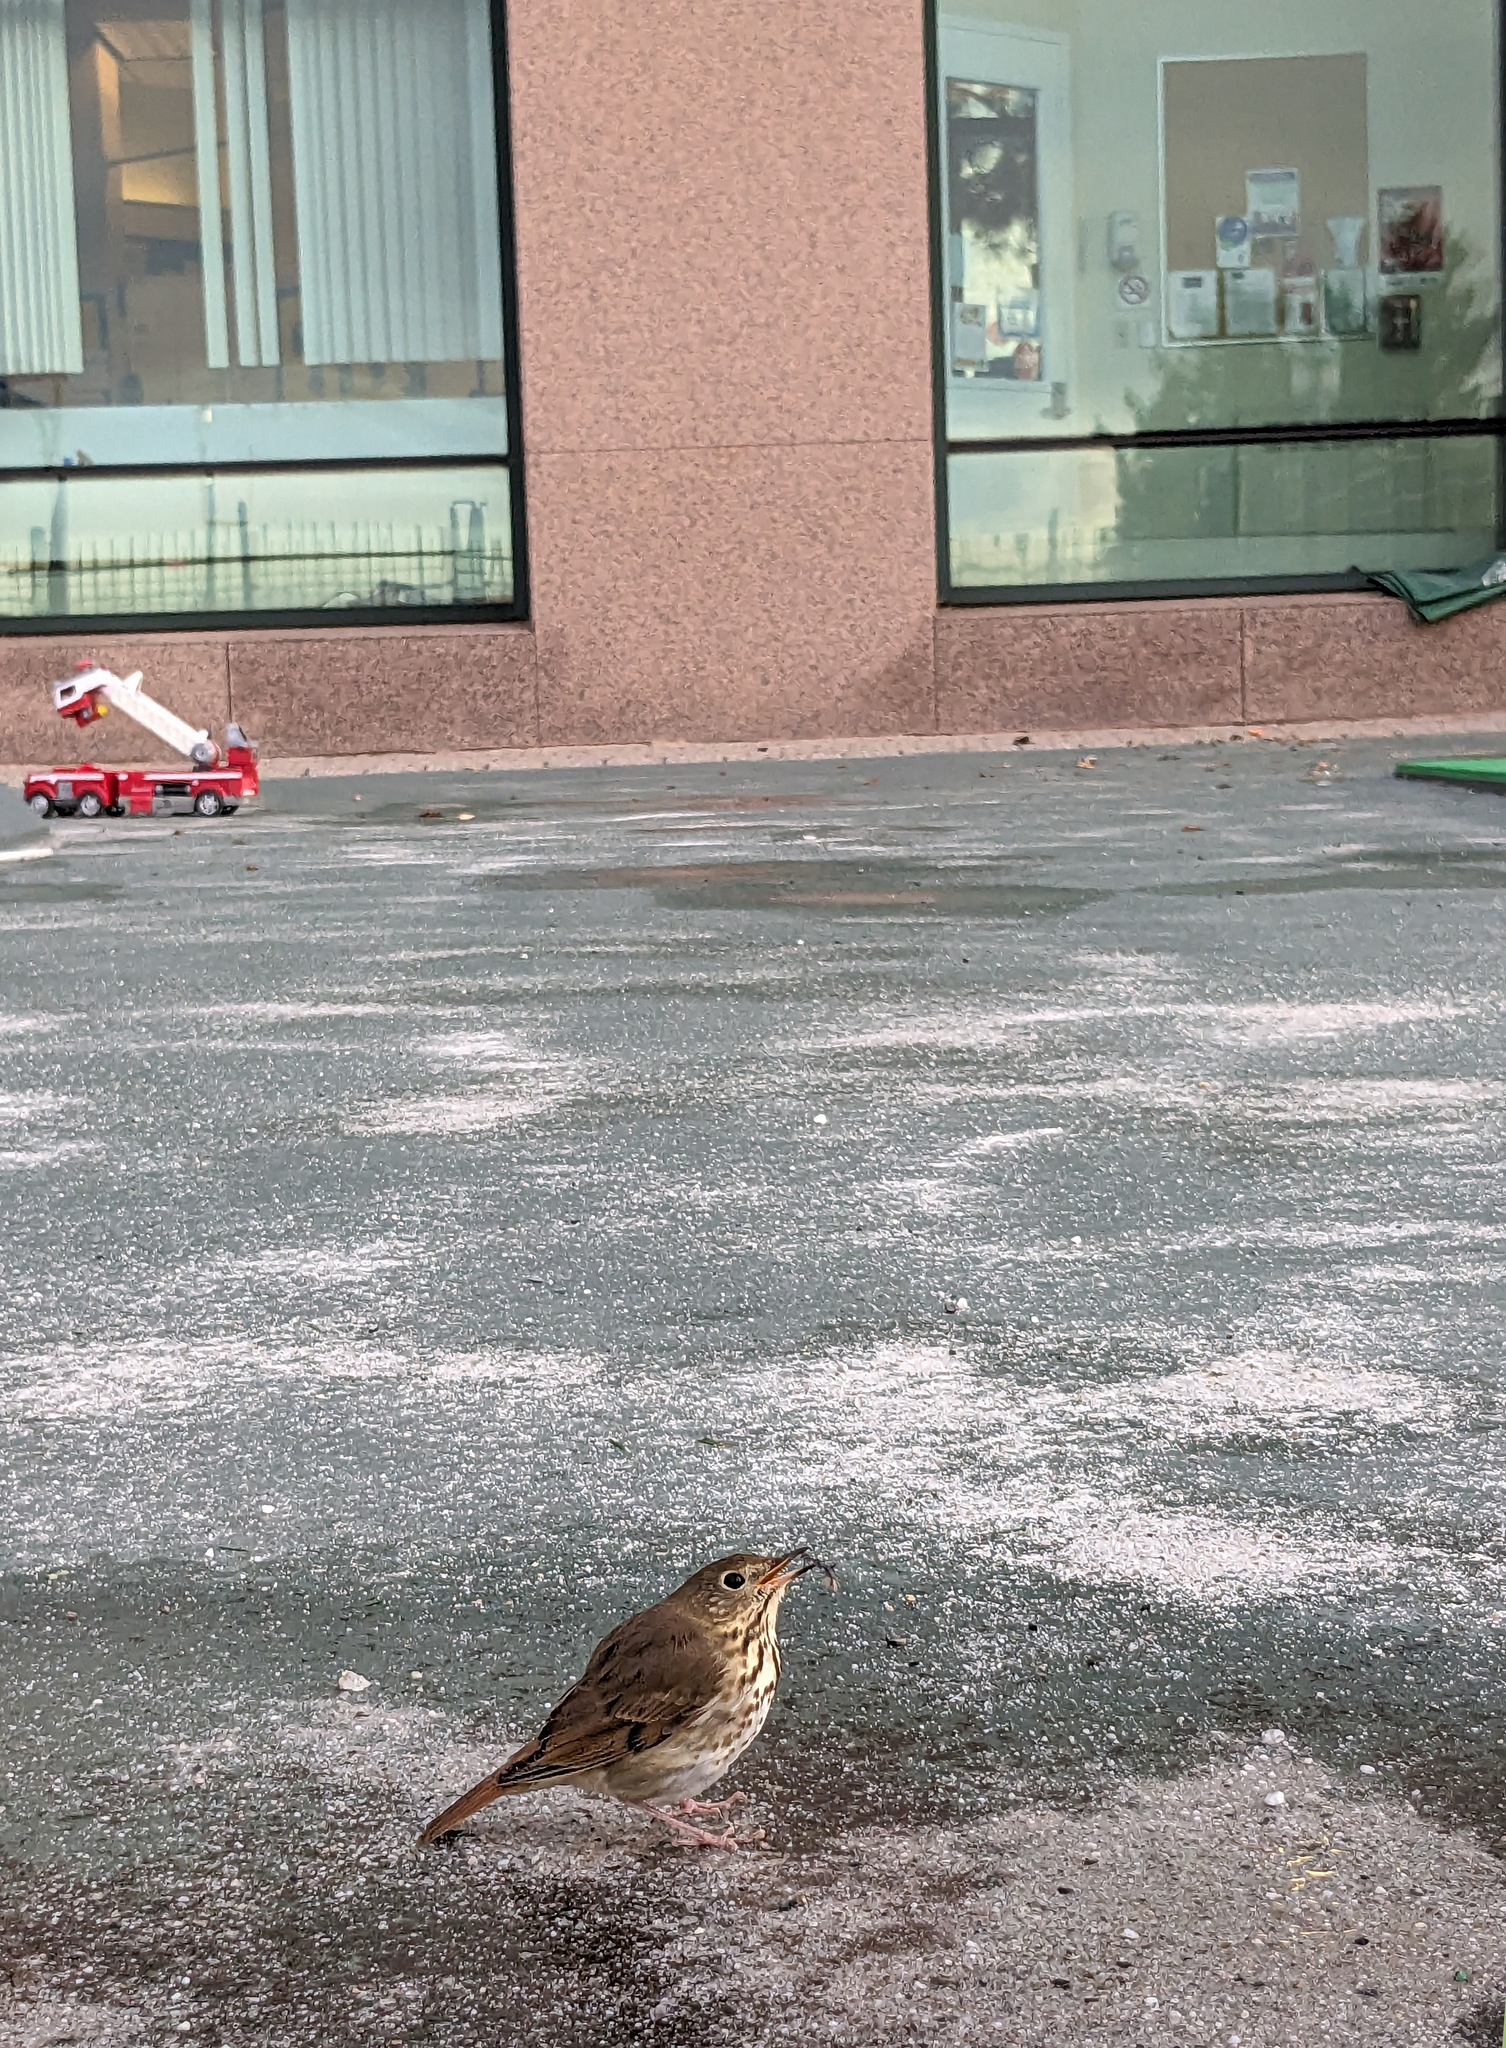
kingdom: Animalia
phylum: Chordata
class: Aves
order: Passeriformes
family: Turdidae
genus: Catharus
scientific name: Catharus guttatus
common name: Hermit thrush
